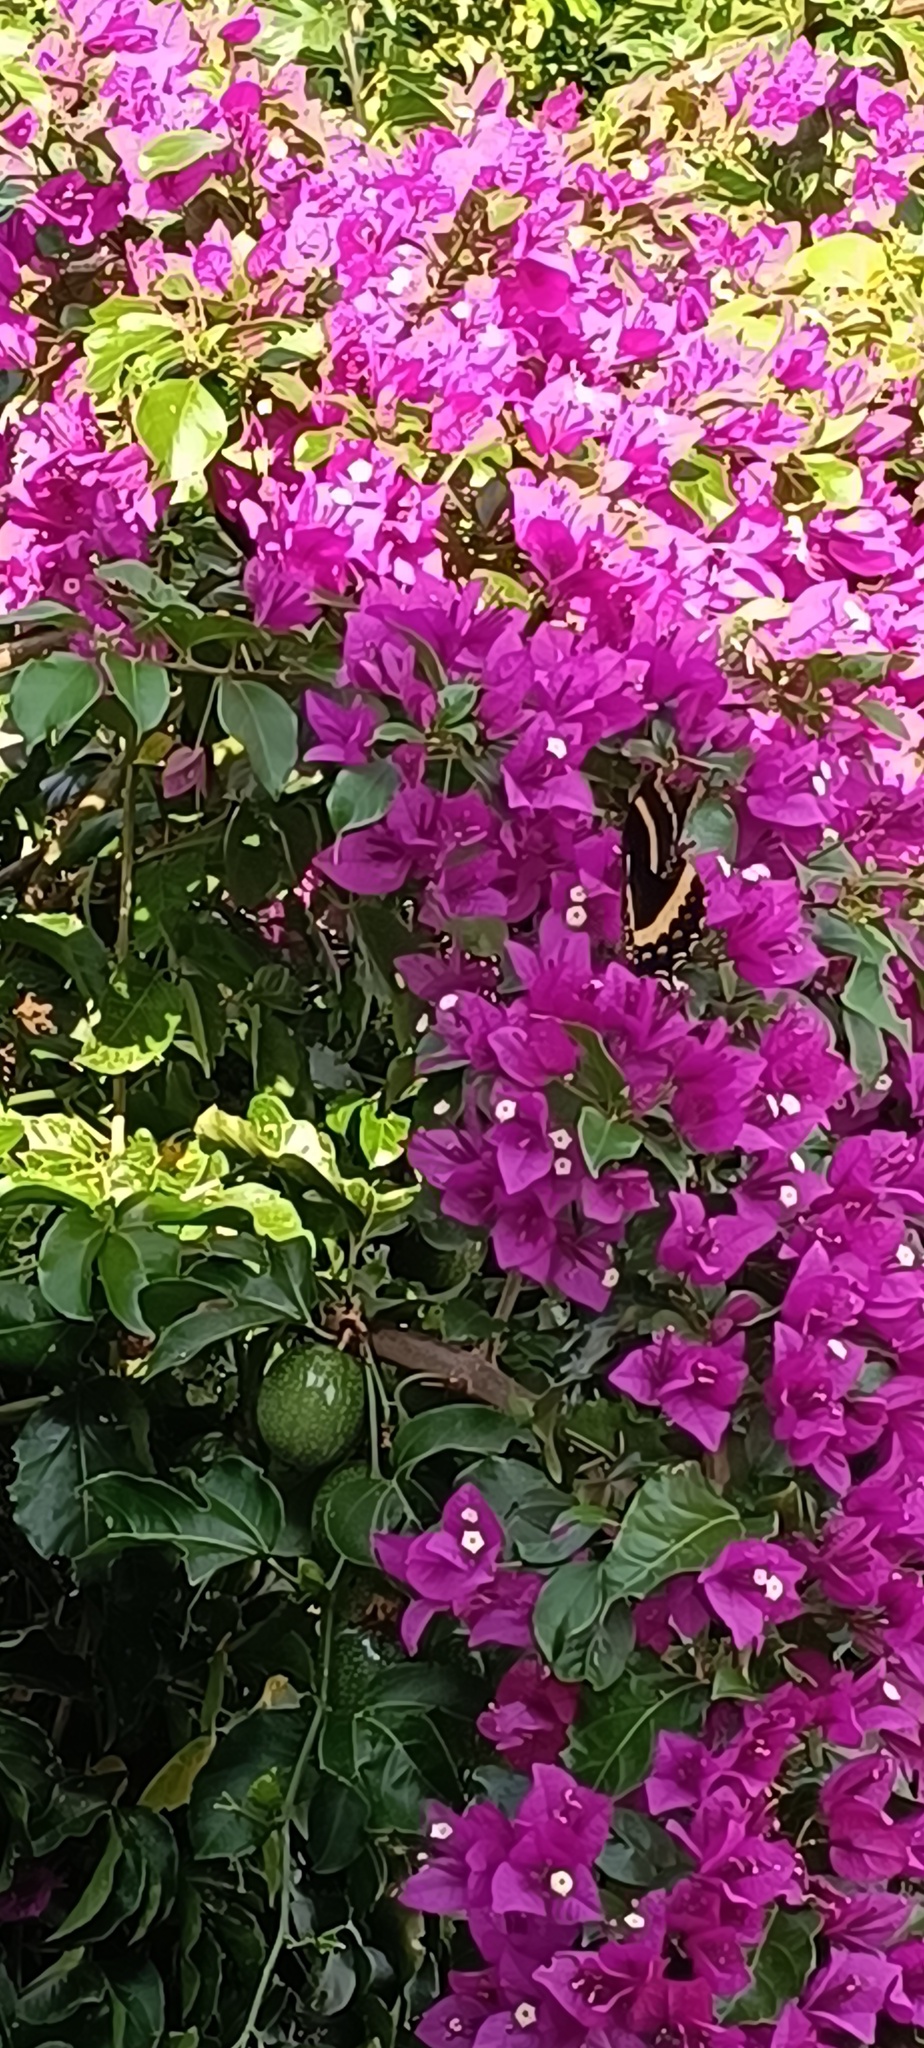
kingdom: Animalia
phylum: Arthropoda
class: Insecta
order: Lepidoptera
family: Papilionidae
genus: Papilio
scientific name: Papilio garamas
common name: Magnificent swallowtail
